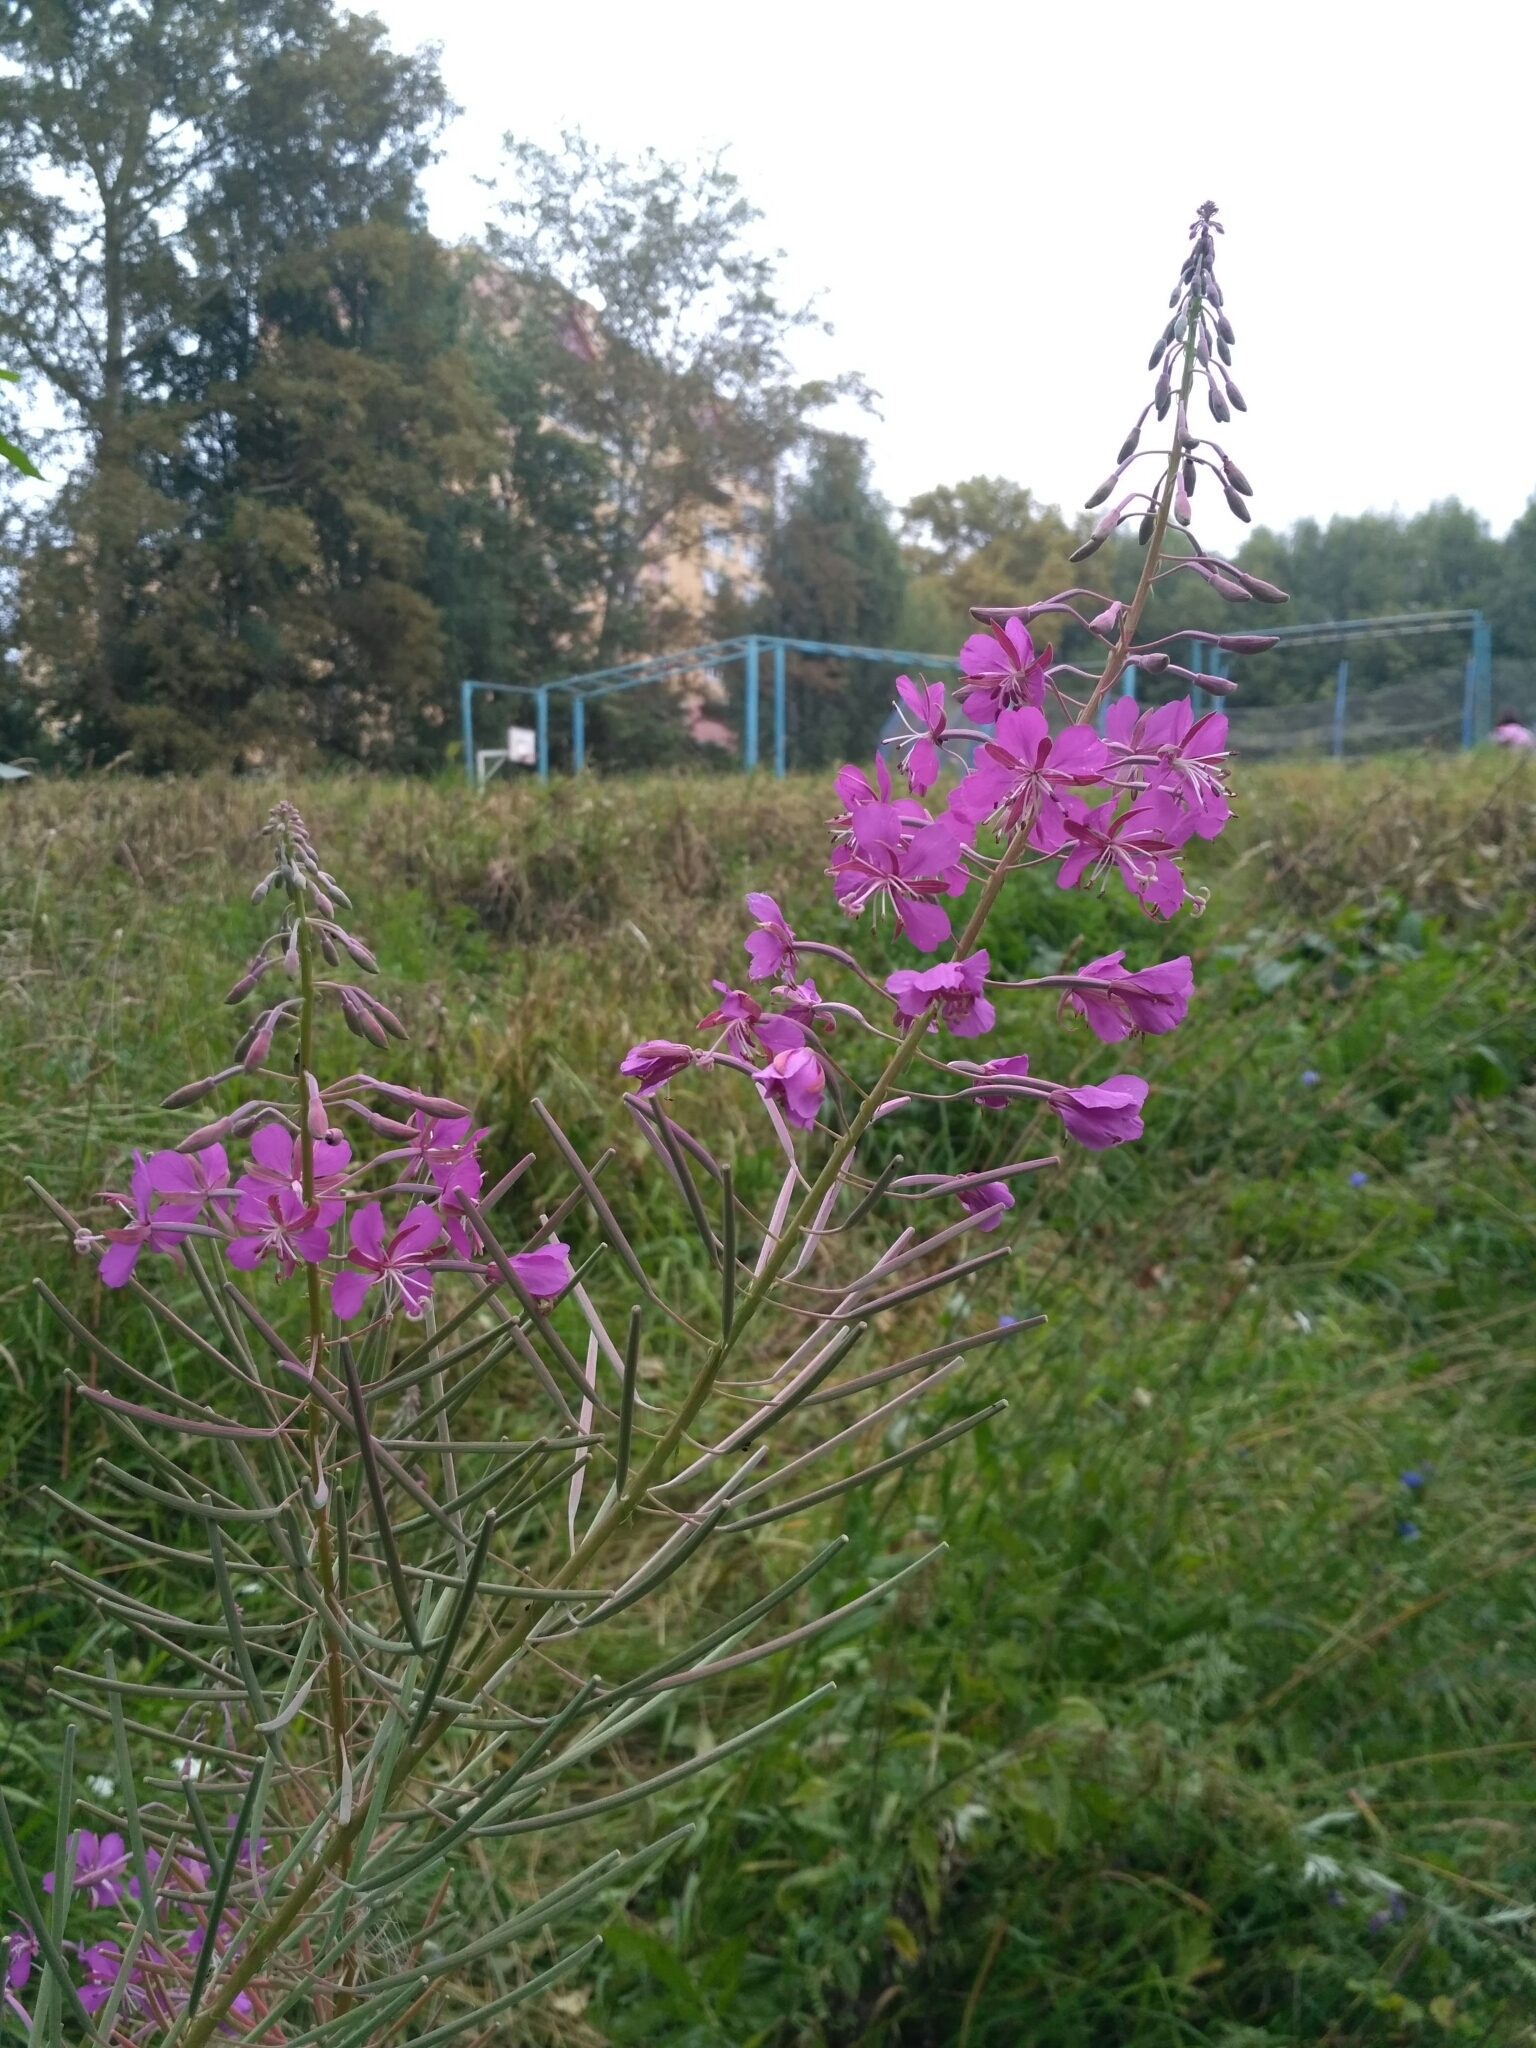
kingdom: Plantae
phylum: Tracheophyta
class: Magnoliopsida
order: Myrtales
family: Onagraceae
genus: Chamaenerion
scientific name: Chamaenerion angustifolium
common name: Fireweed
